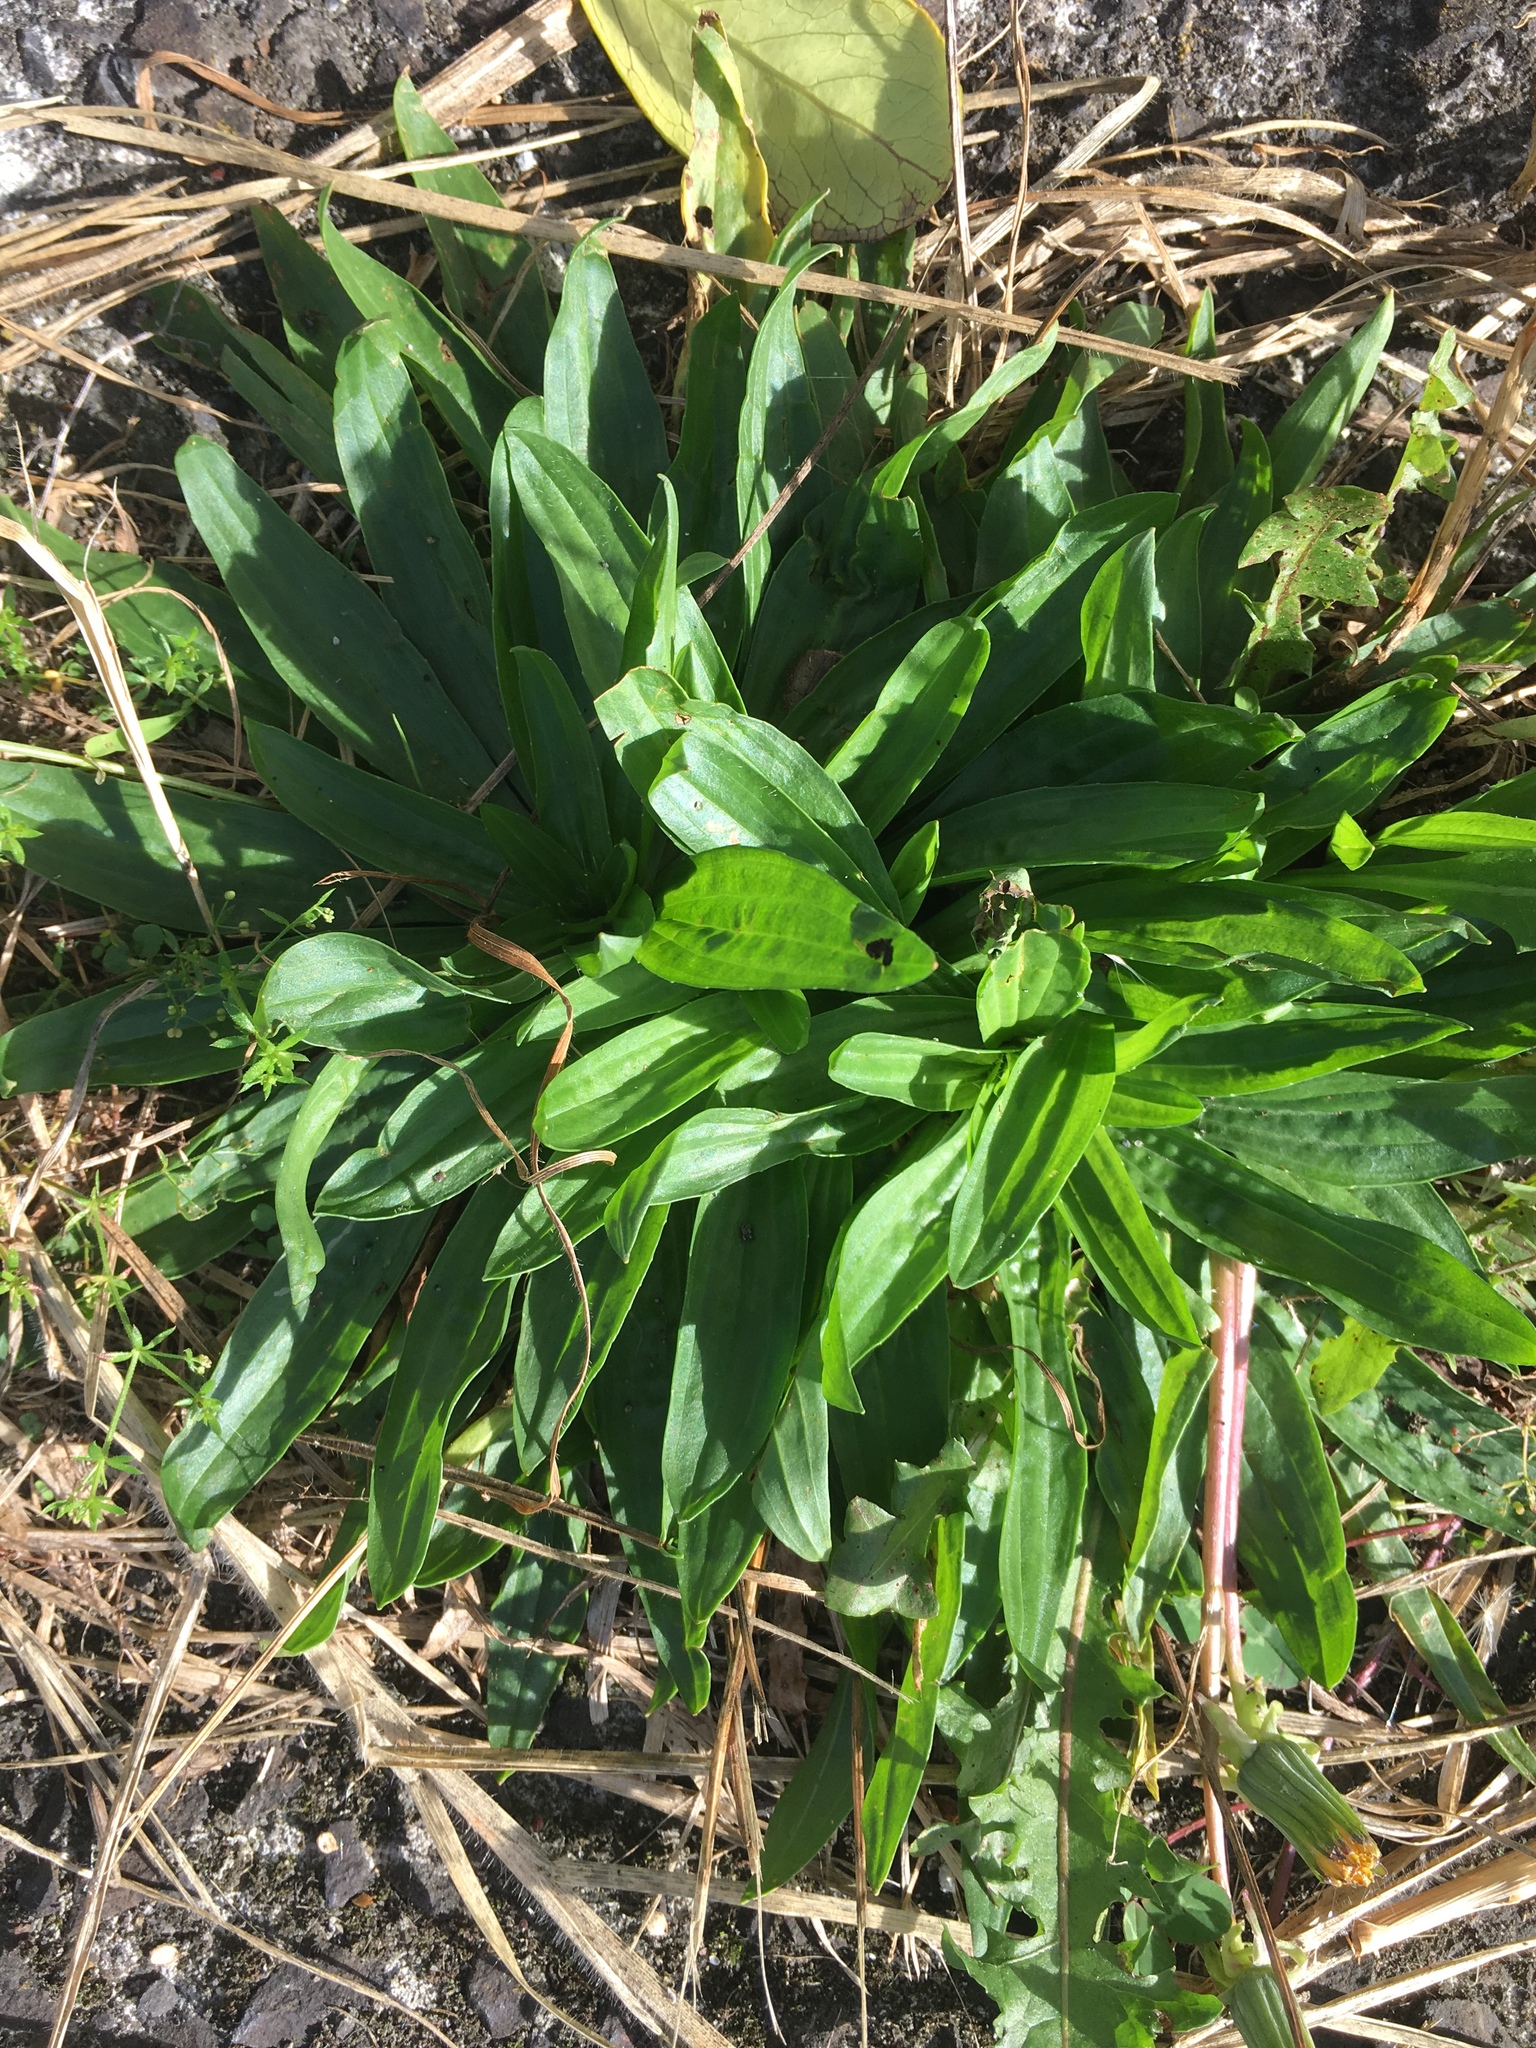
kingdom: Plantae
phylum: Tracheophyta
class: Magnoliopsida
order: Lamiales
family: Plantaginaceae
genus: Plantago
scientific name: Plantago lanceolata
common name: Ribwort plantain
